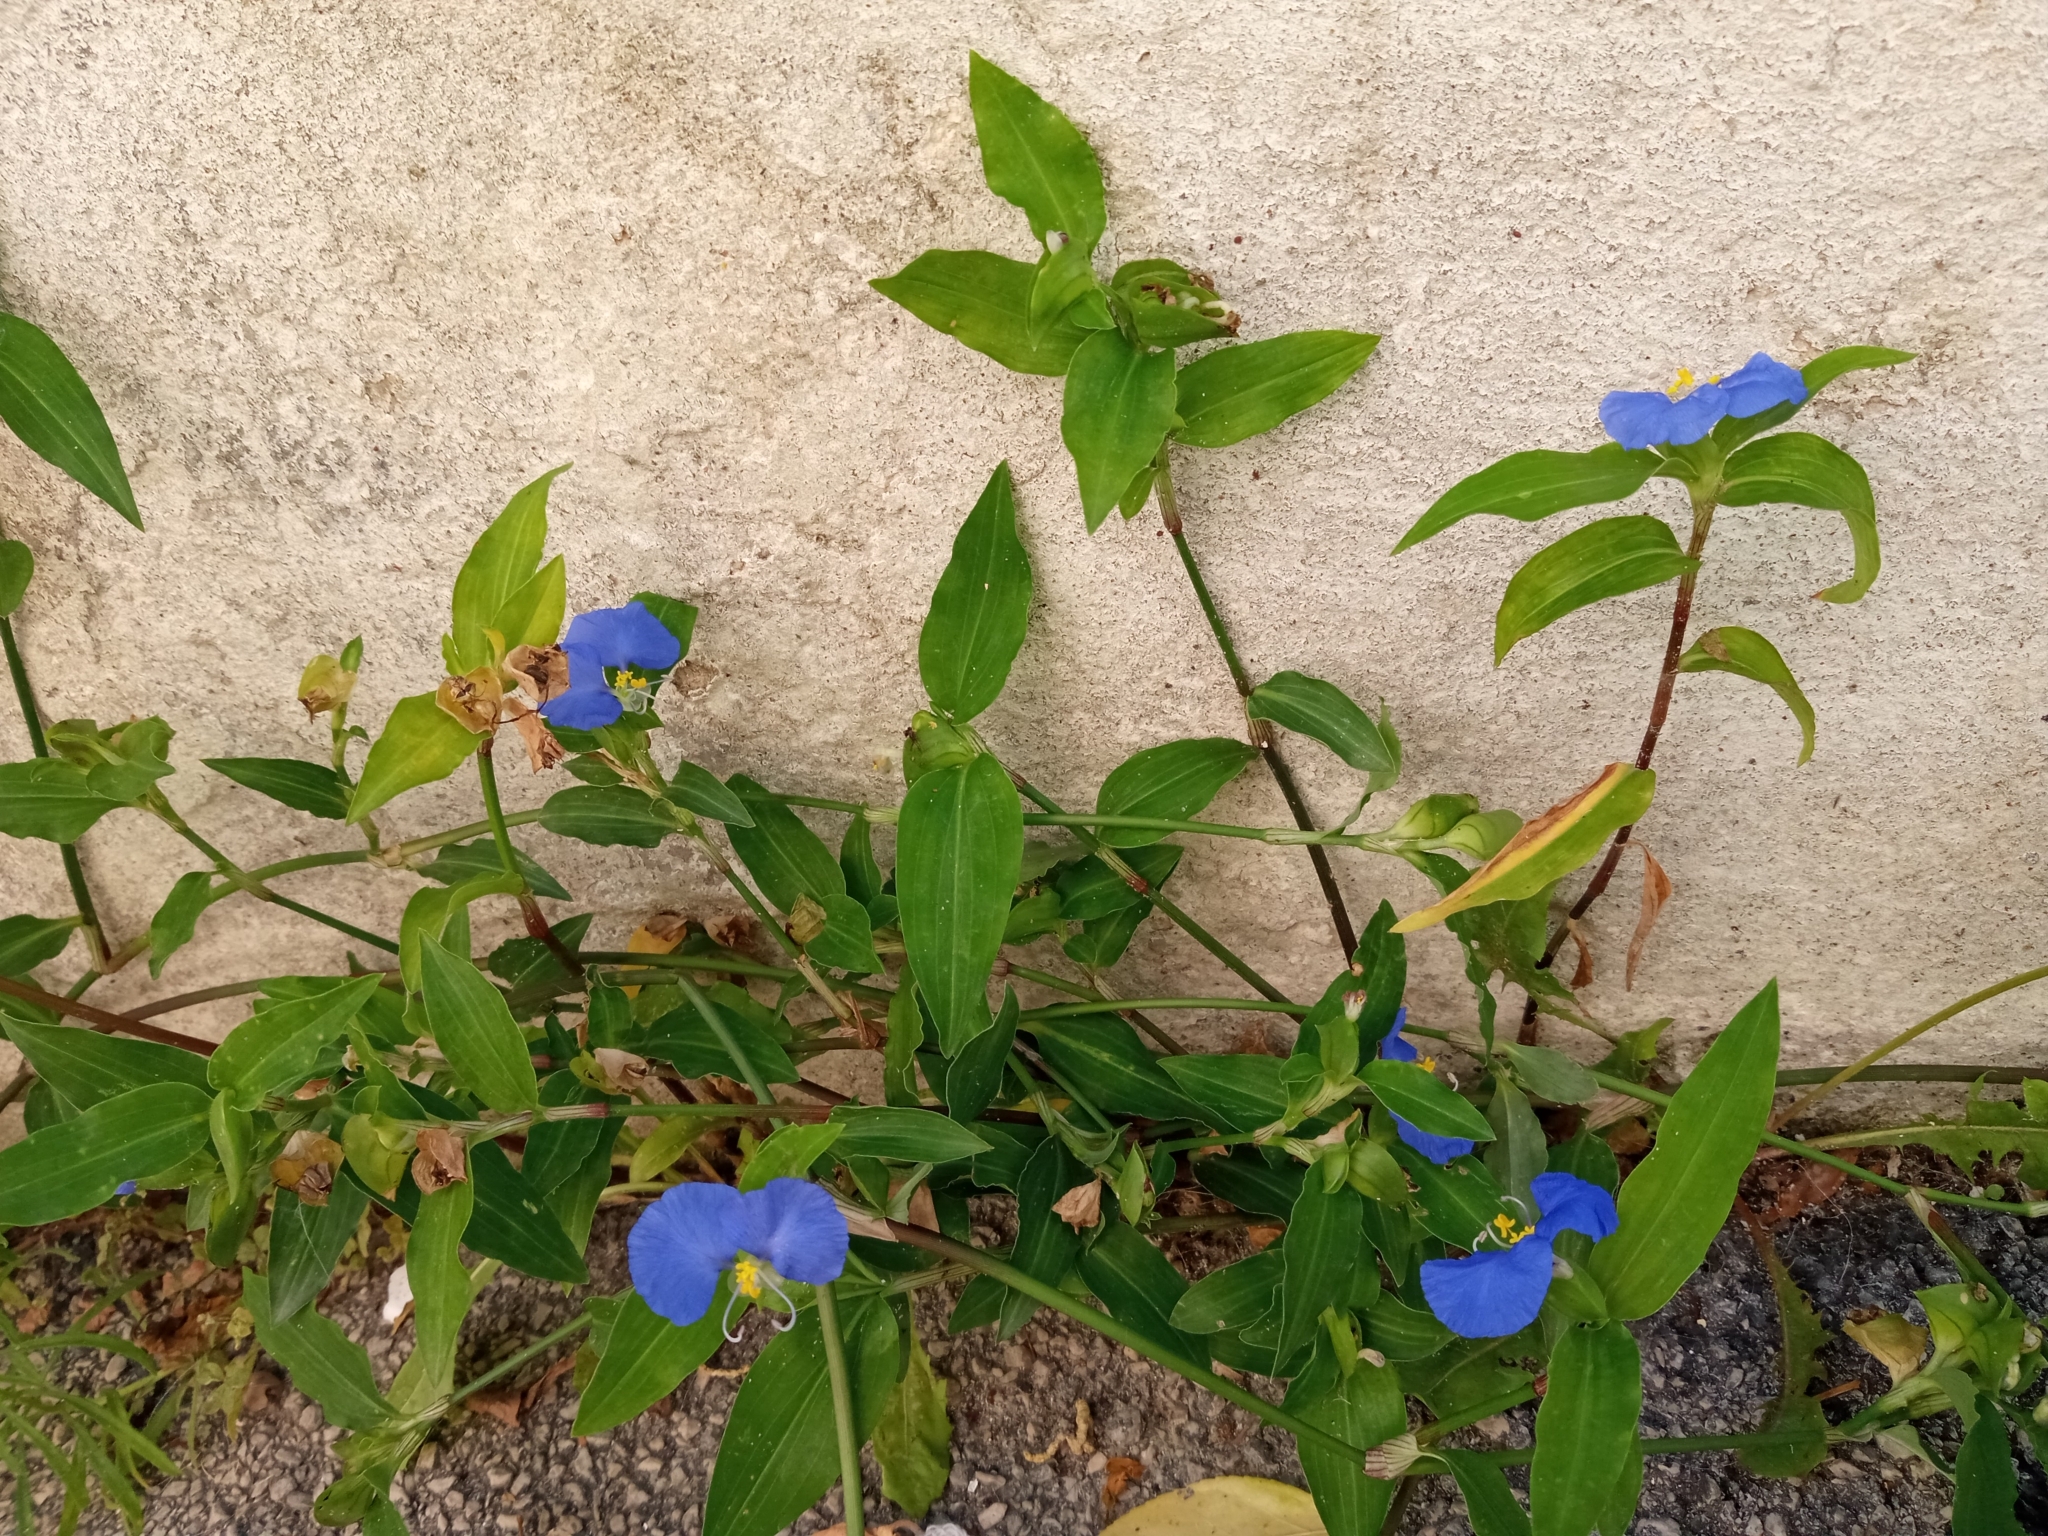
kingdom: Plantae
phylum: Tracheophyta
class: Liliopsida
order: Commelinales
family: Commelinaceae
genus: Commelina
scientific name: Commelina communis
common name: Asiatic dayflower
